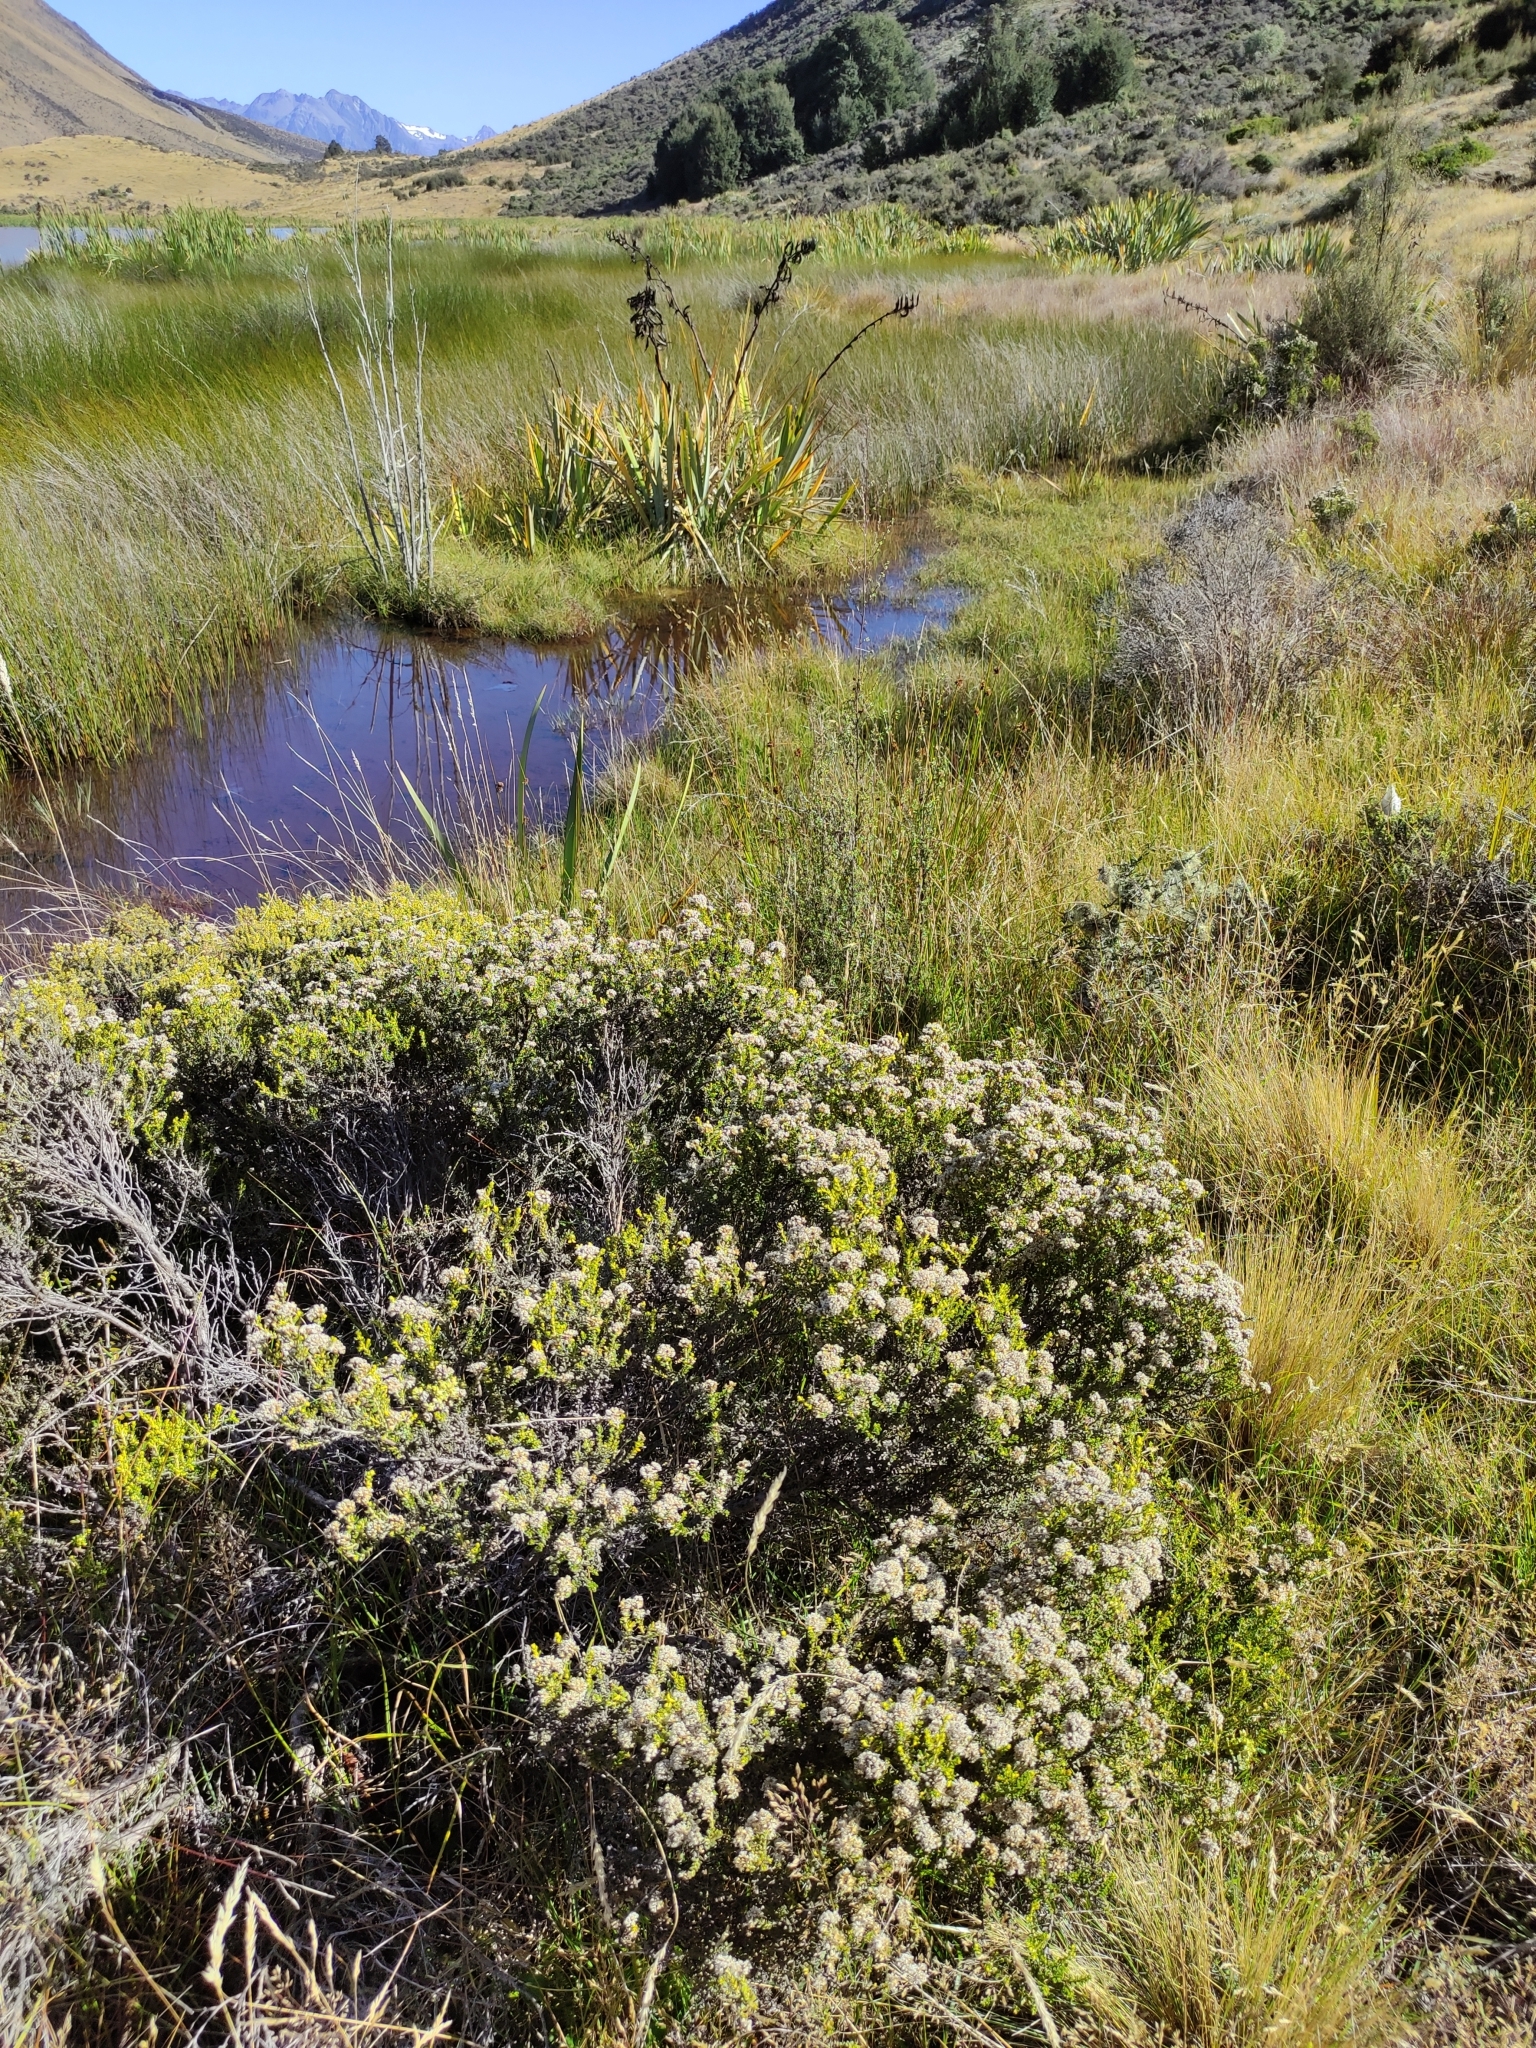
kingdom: Plantae
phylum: Tracheophyta
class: Magnoliopsida
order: Asterales
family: Asteraceae
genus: Ozothamnus
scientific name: Ozothamnus leptophyllus
